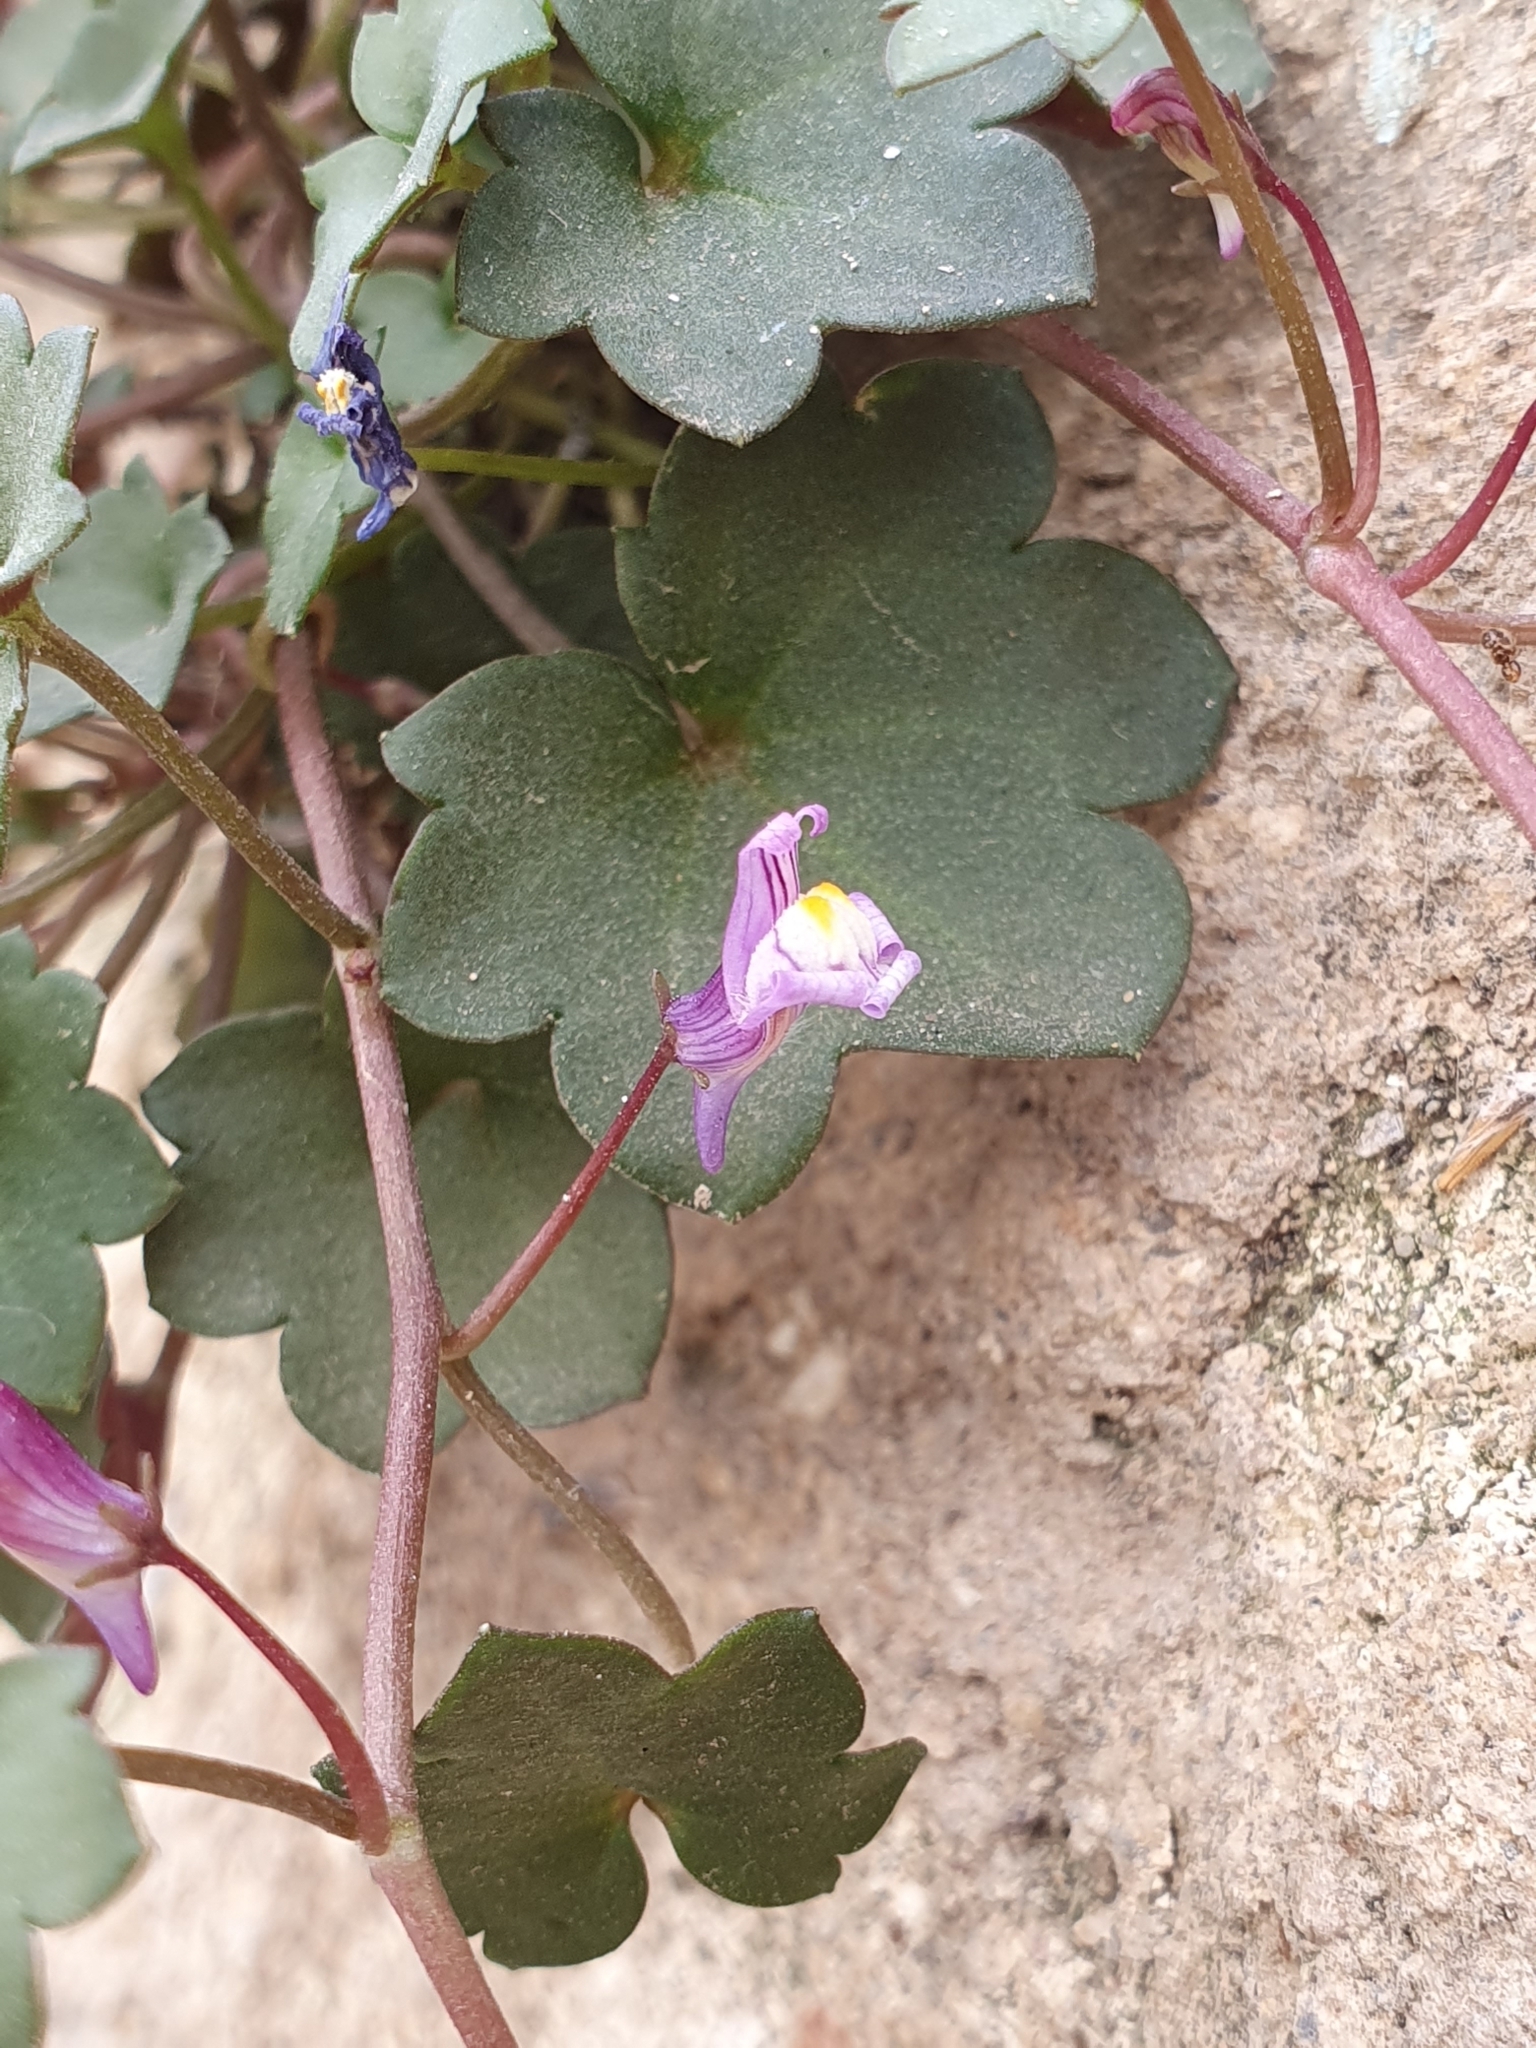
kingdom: Plantae
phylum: Tracheophyta
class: Magnoliopsida
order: Lamiales
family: Plantaginaceae
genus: Cymbalaria
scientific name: Cymbalaria muralis
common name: Ivy-leaved toadflax
